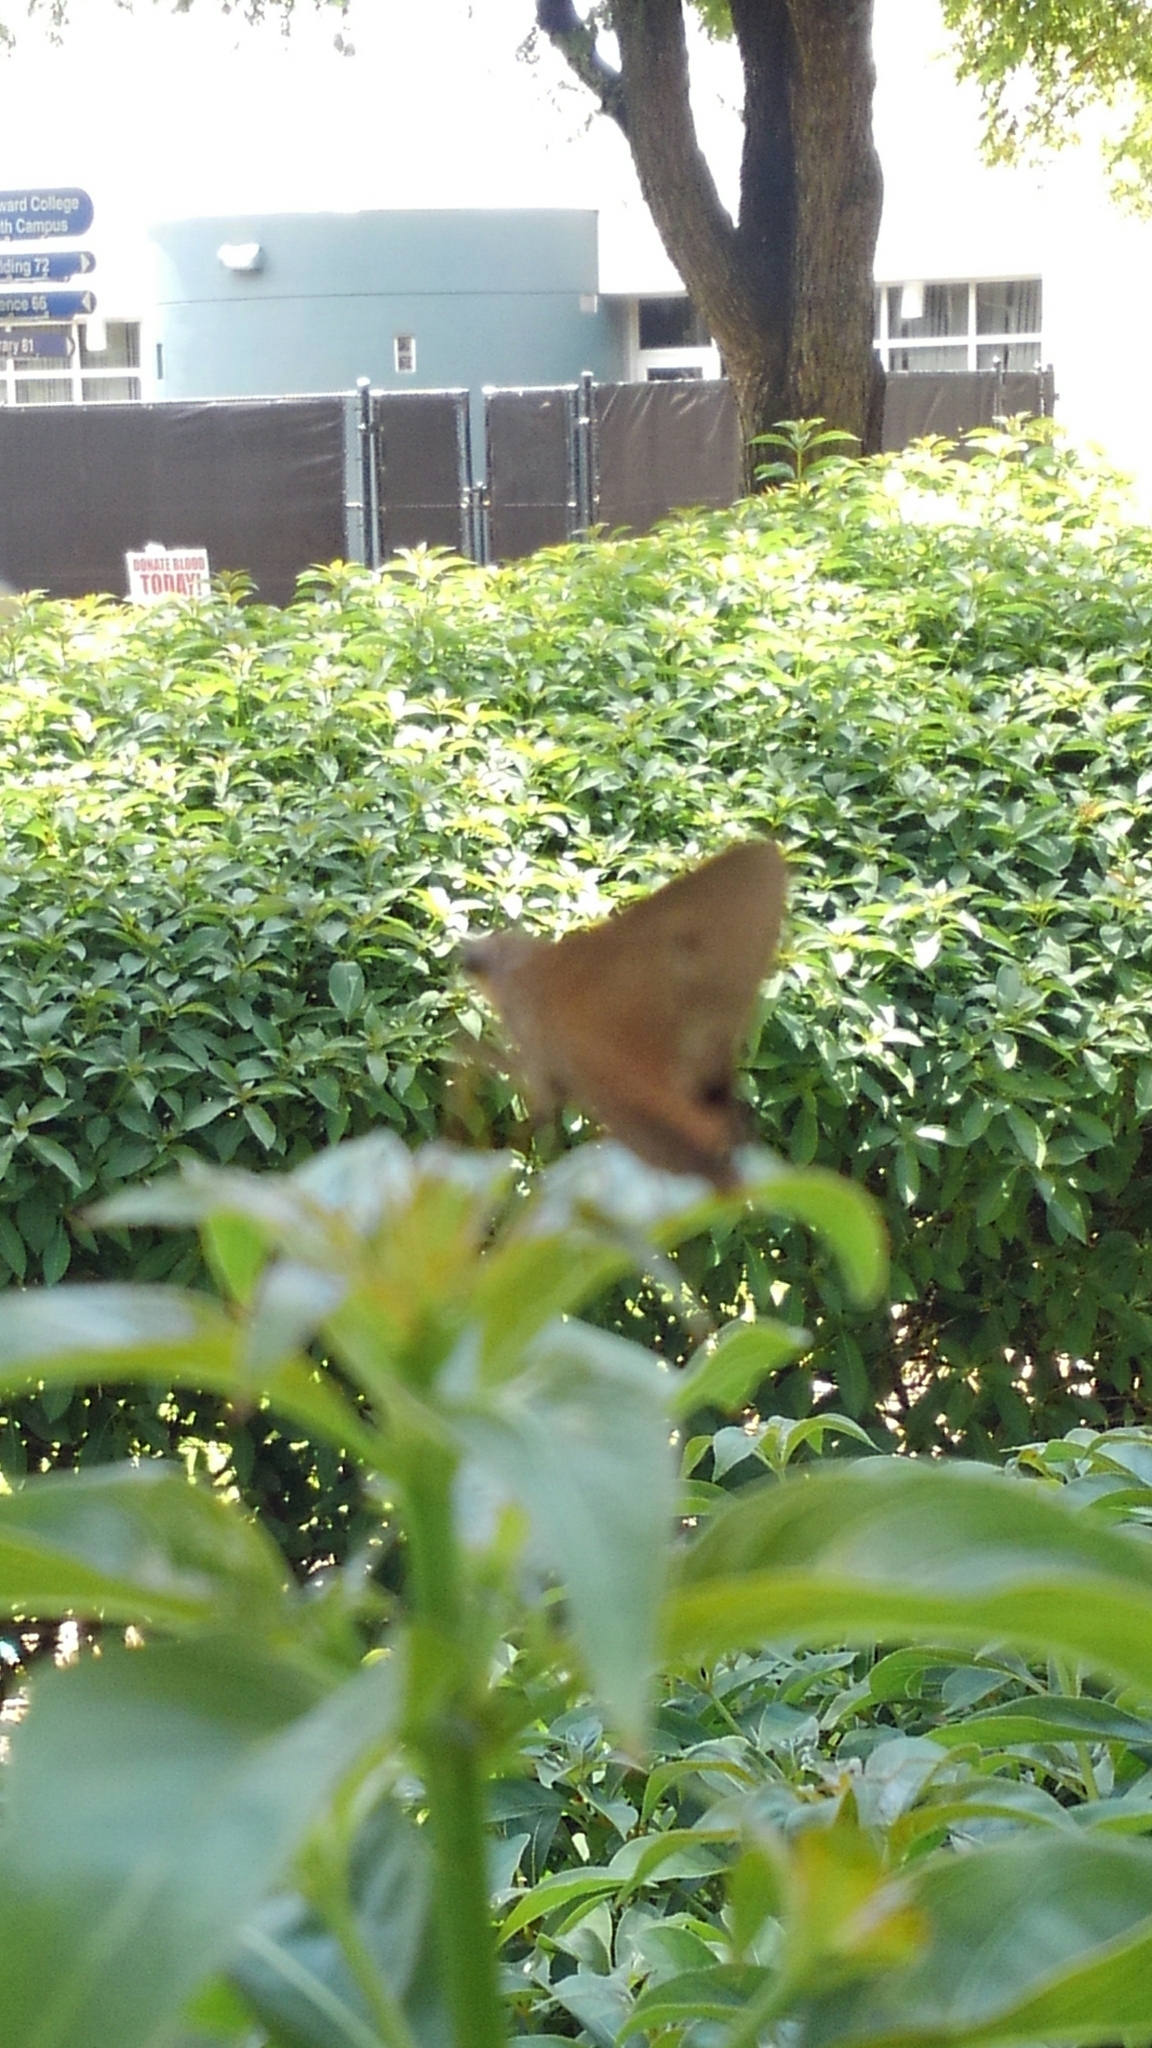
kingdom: Animalia
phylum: Arthropoda
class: Insecta
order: Lepidoptera
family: Hesperiidae
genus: Asbolis
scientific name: Asbolis capucinus
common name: Monk skipper
